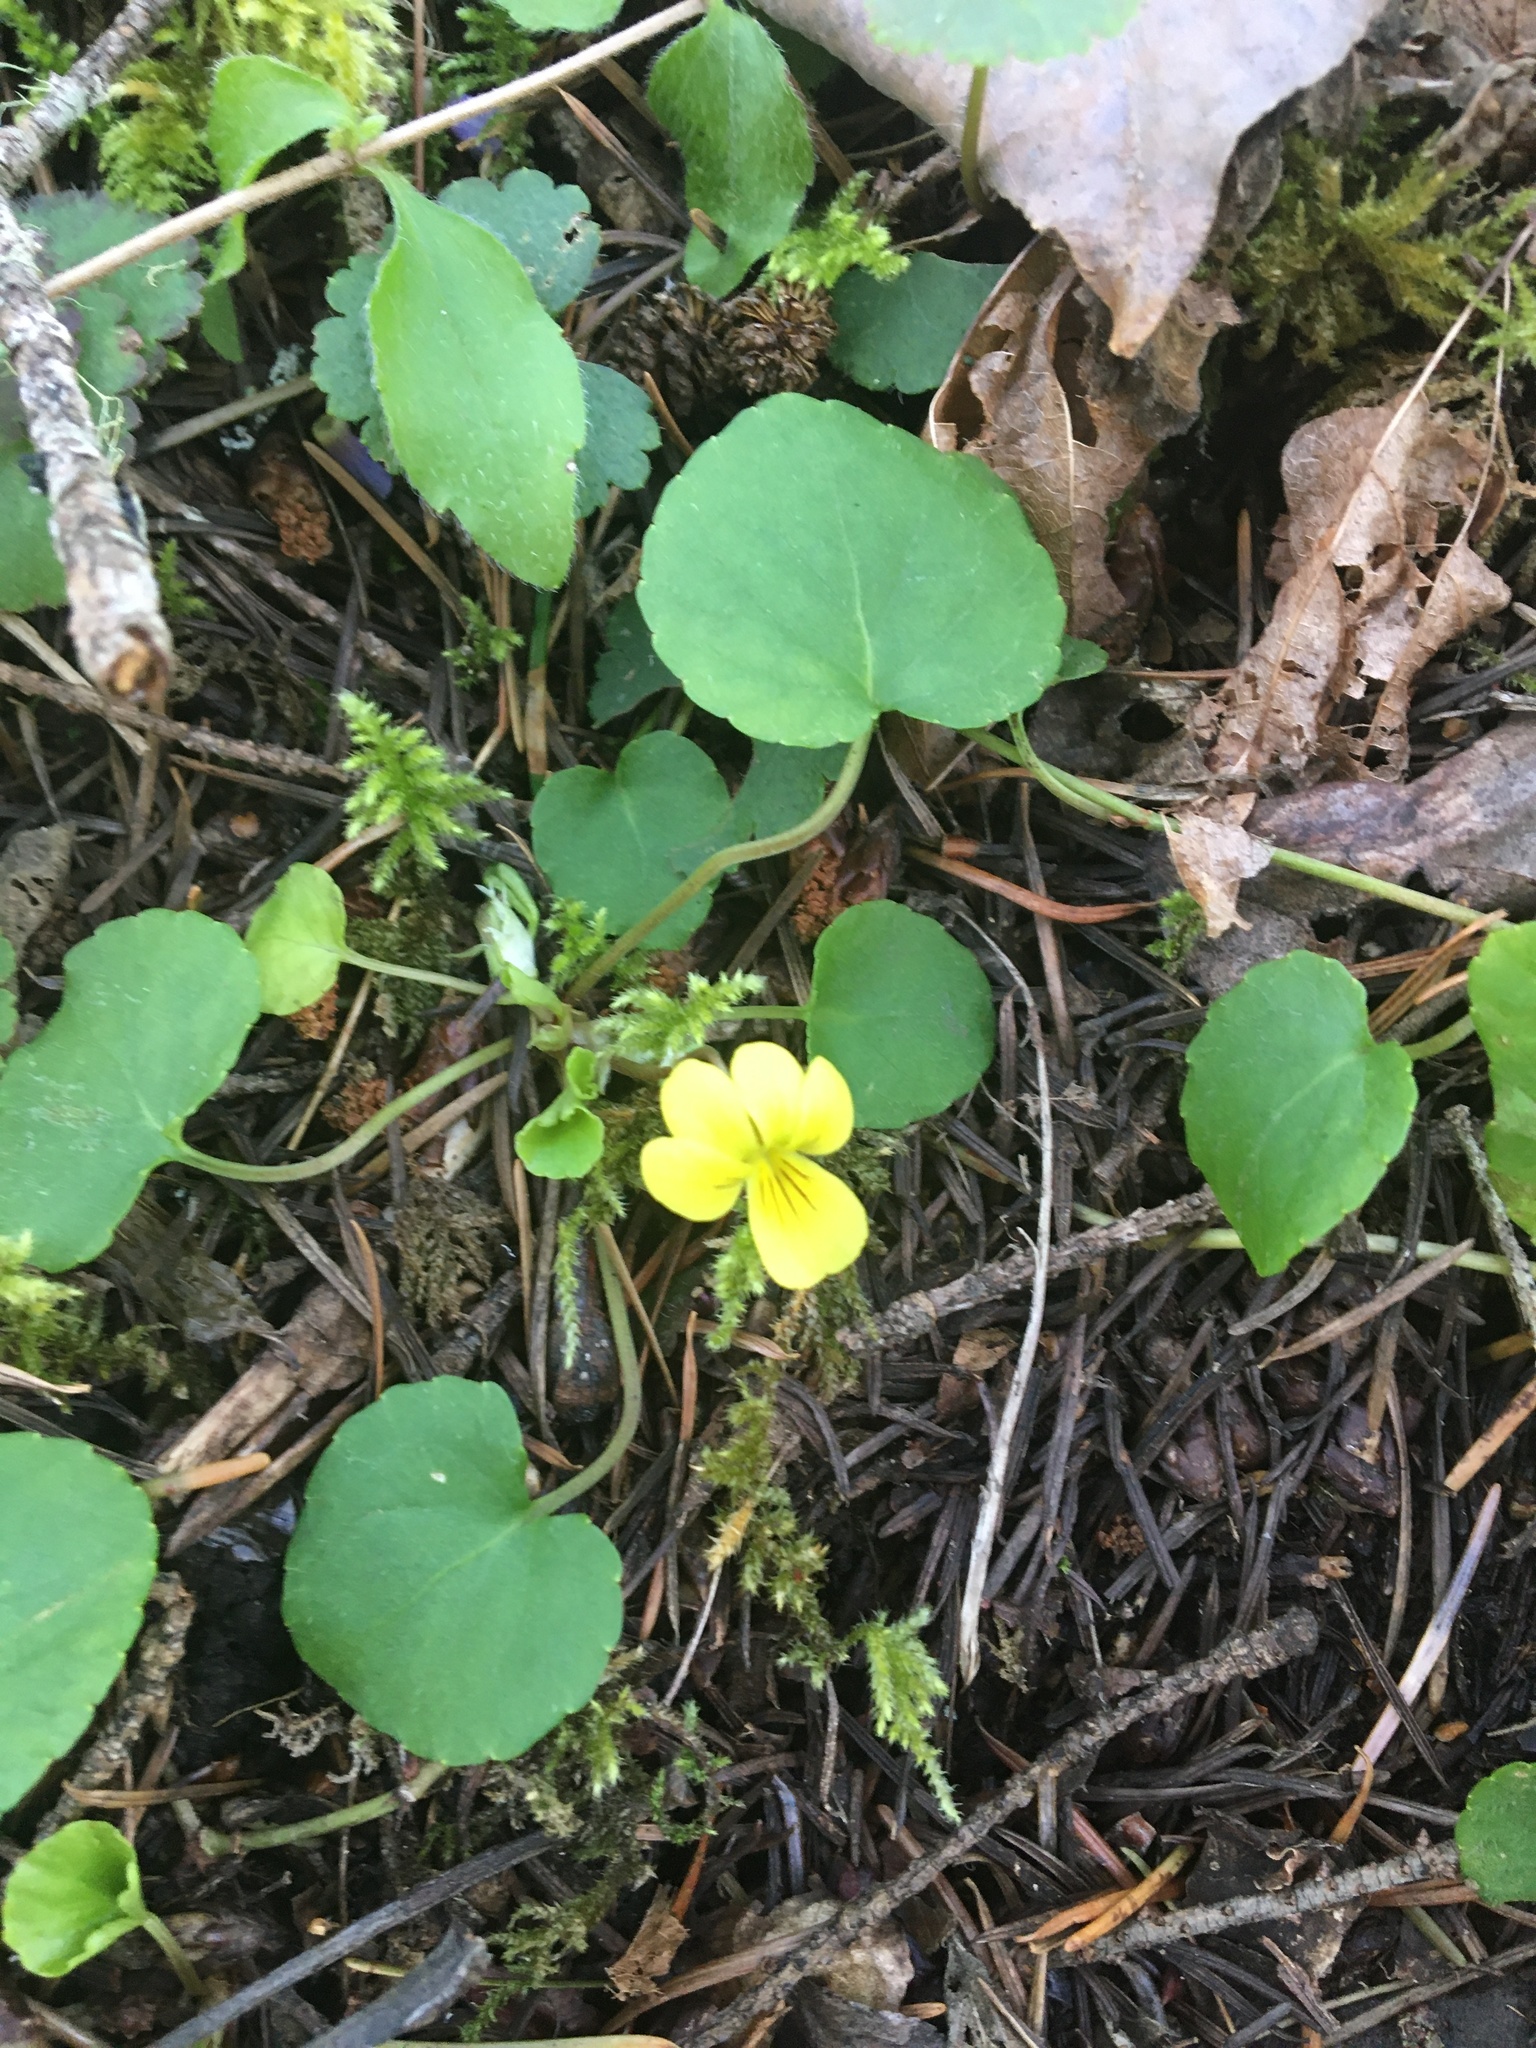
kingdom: Plantae
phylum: Tracheophyta
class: Magnoliopsida
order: Malpighiales
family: Violaceae
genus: Viola
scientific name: Viola sempervirens
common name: Evergreen violet
